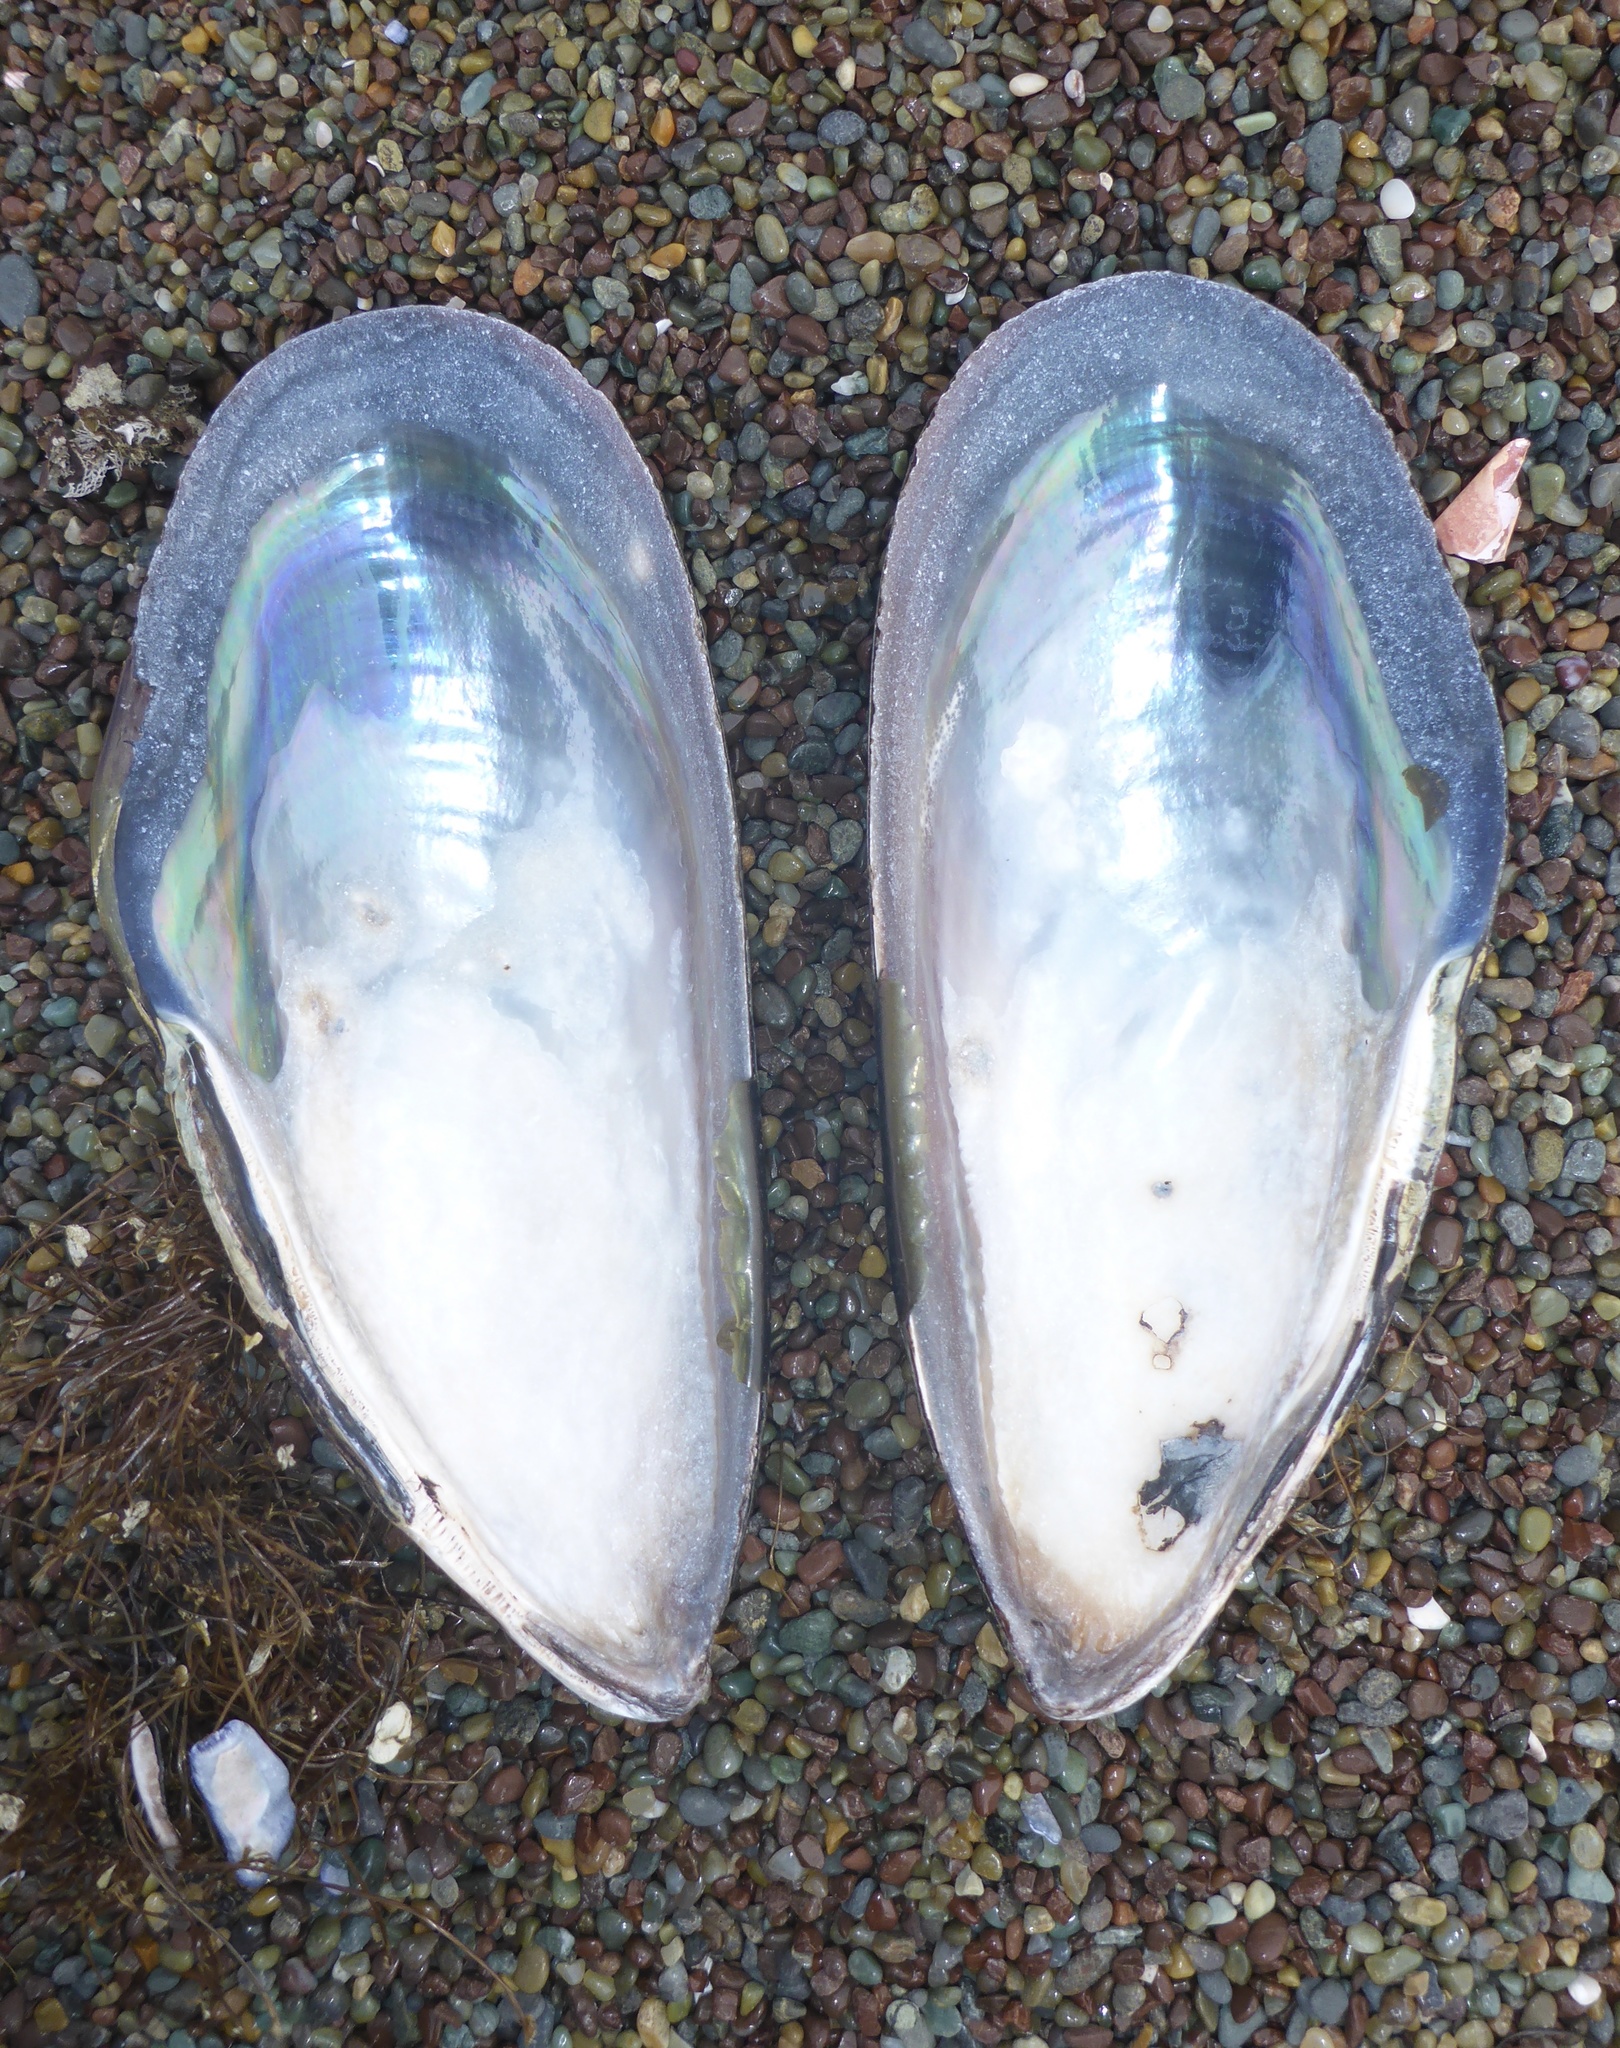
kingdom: Animalia
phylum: Mollusca
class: Bivalvia
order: Mytilida
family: Mytilidae
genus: Mytilus
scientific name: Mytilus californianus
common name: California mussel
